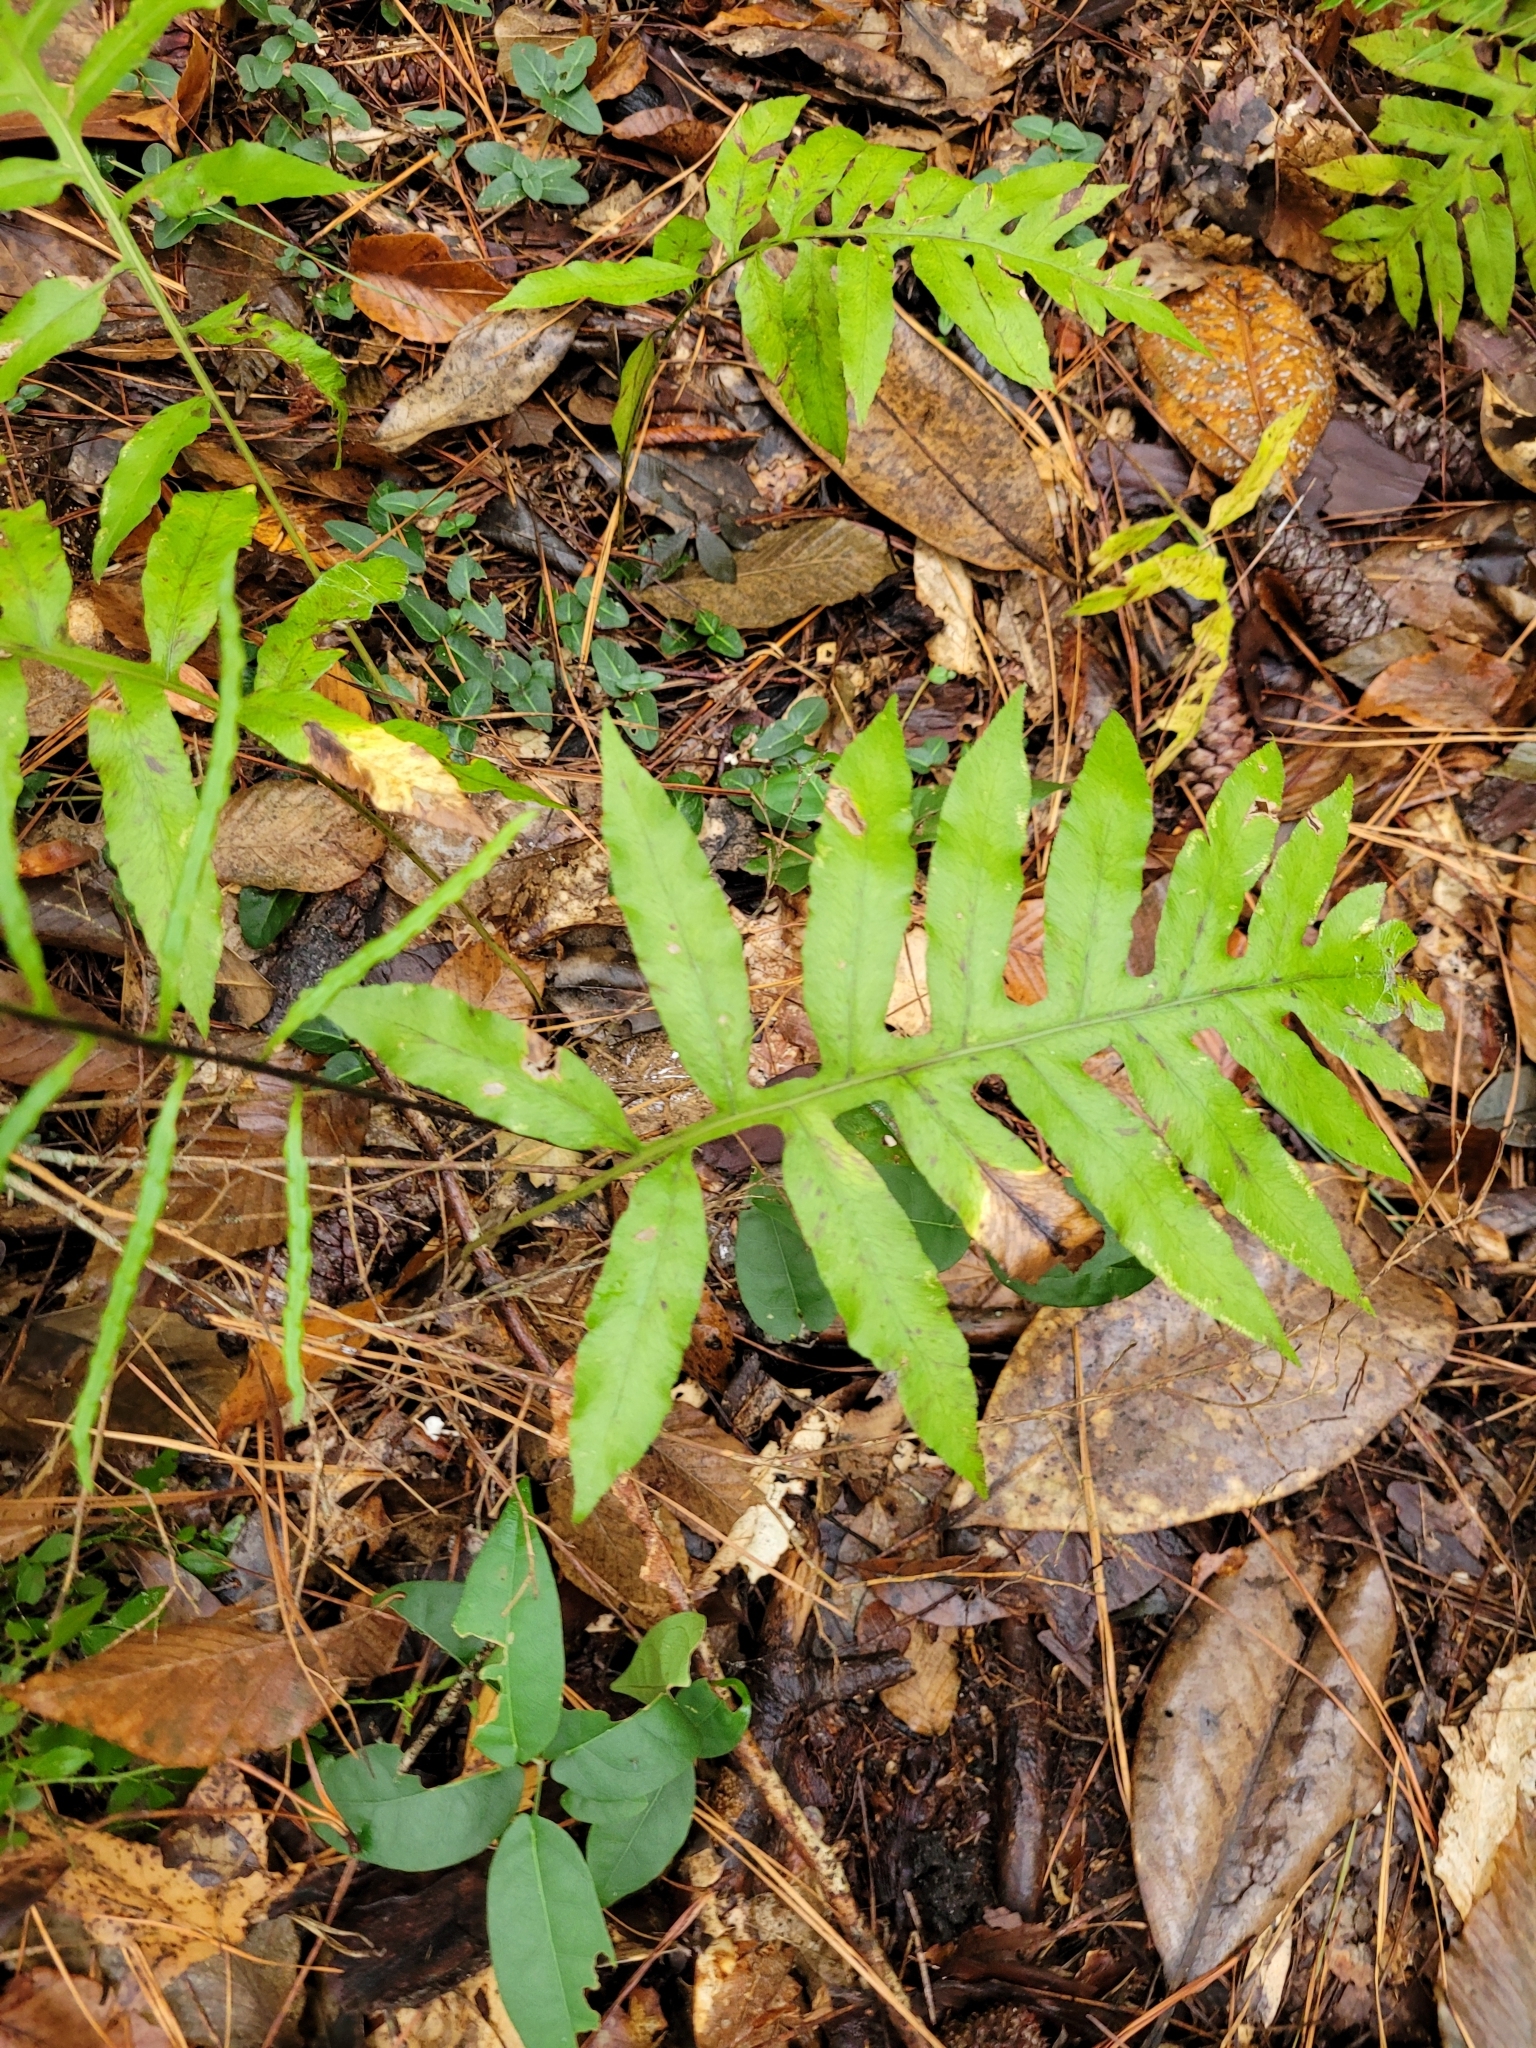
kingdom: Plantae
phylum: Tracheophyta
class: Polypodiopsida
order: Polypodiales
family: Blechnaceae
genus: Lorinseria
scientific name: Lorinseria areolata
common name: Dwarf chain fern
